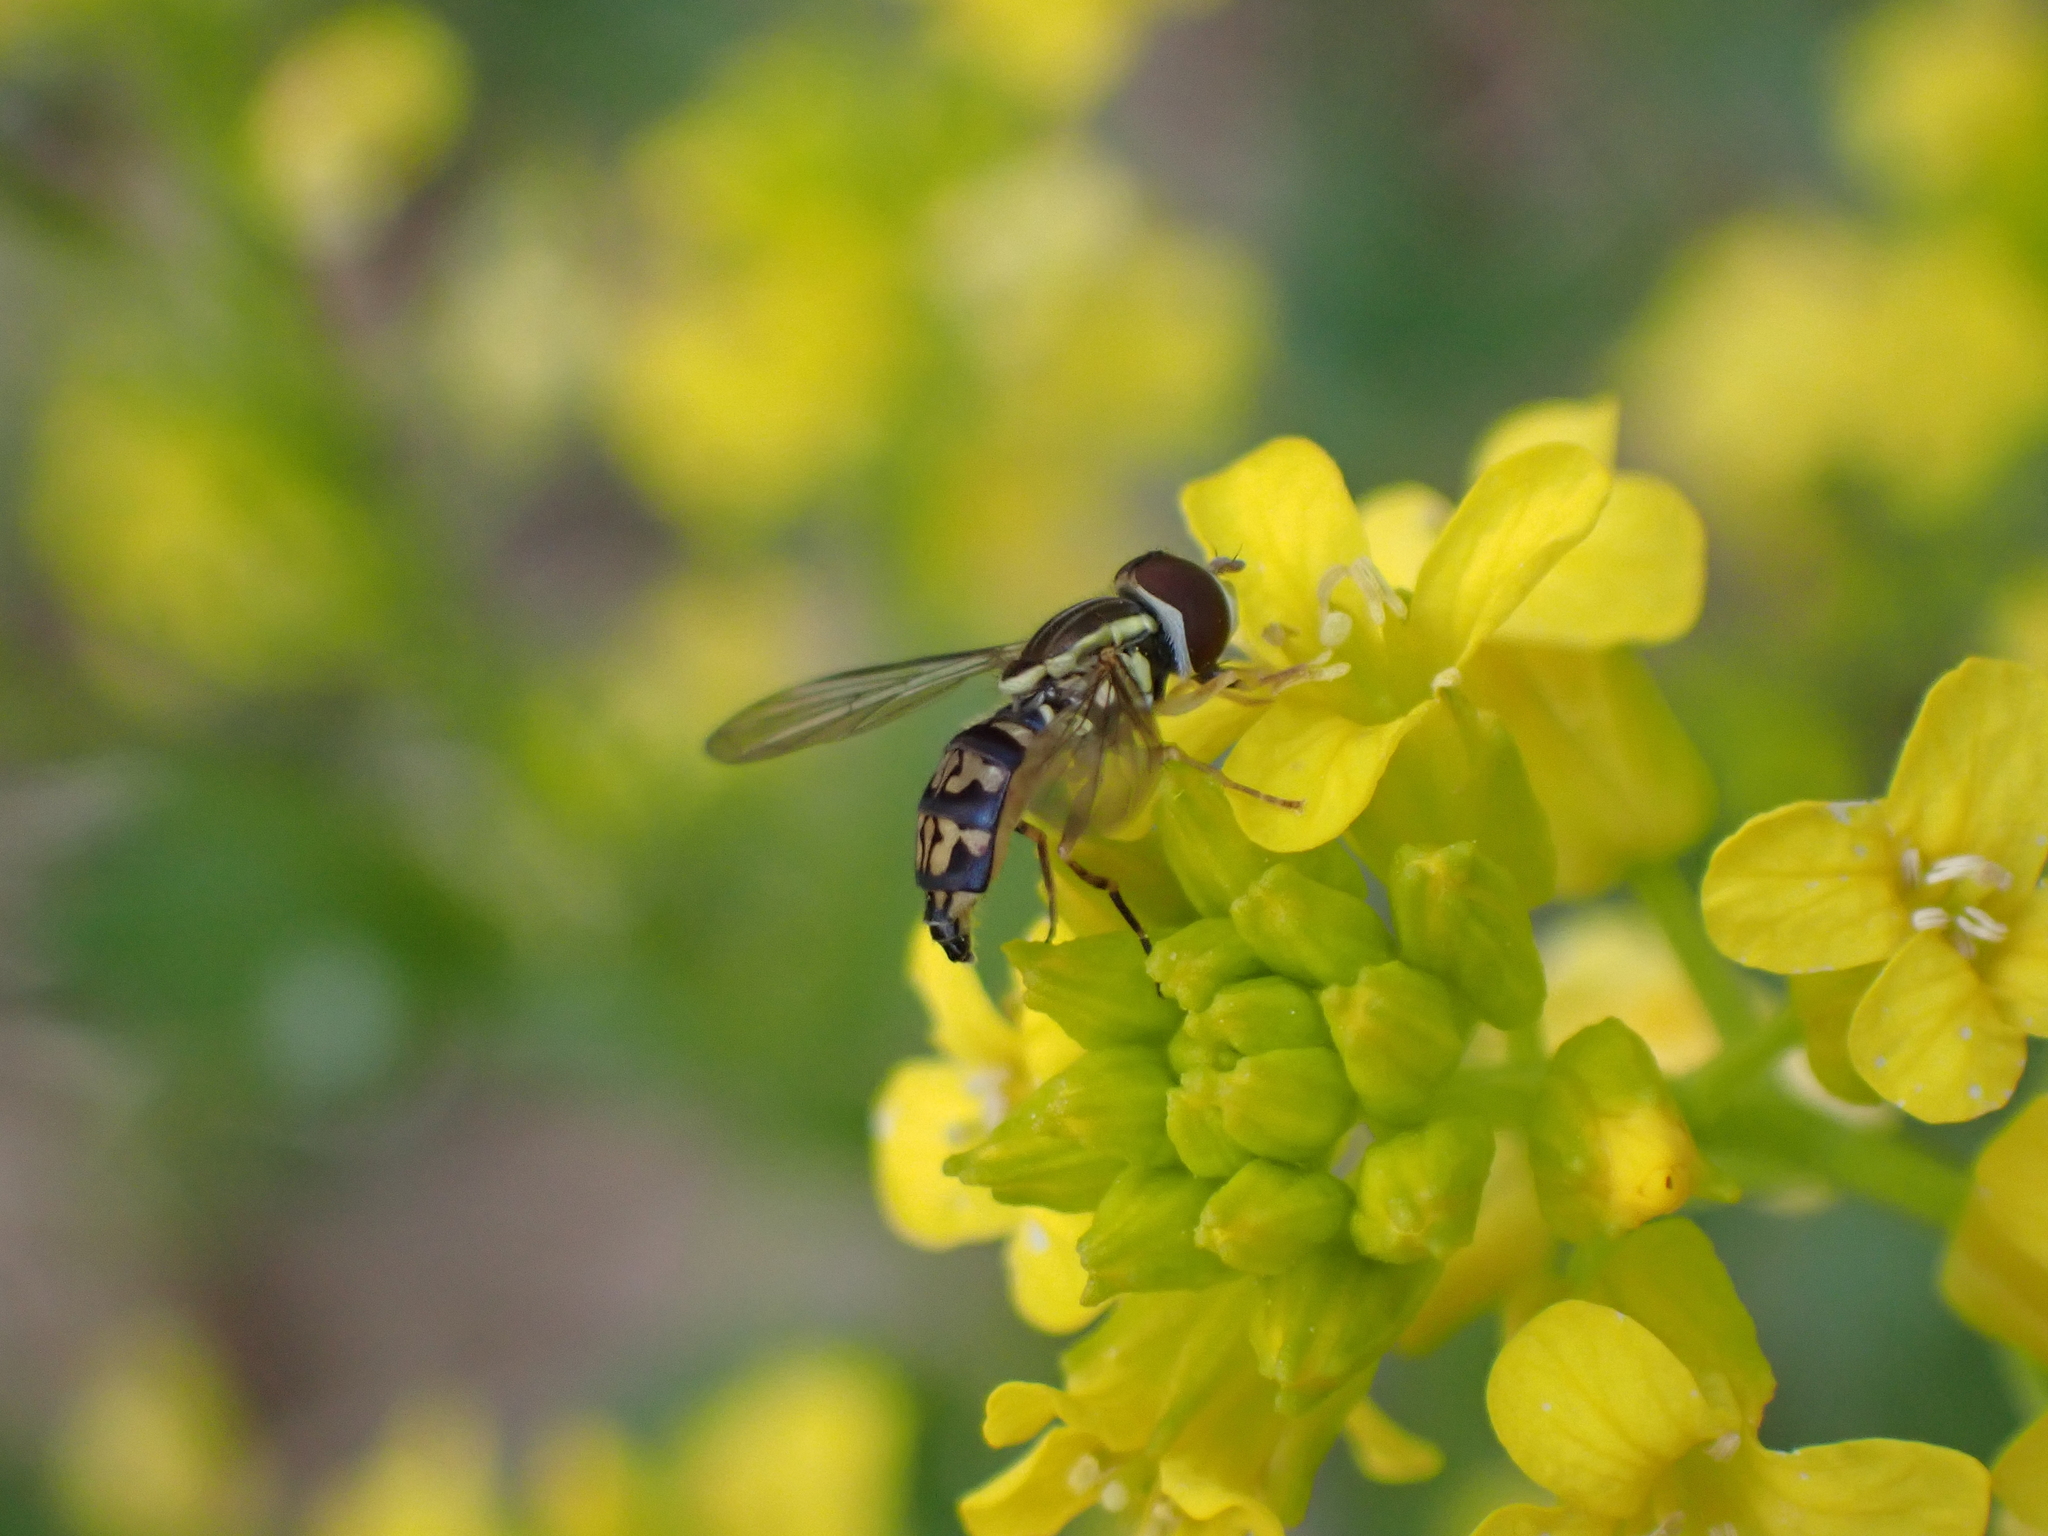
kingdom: Animalia
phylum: Arthropoda
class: Insecta
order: Diptera
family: Syrphidae
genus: Toxomerus
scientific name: Toxomerus geminatus
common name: Eastern calligrapher
